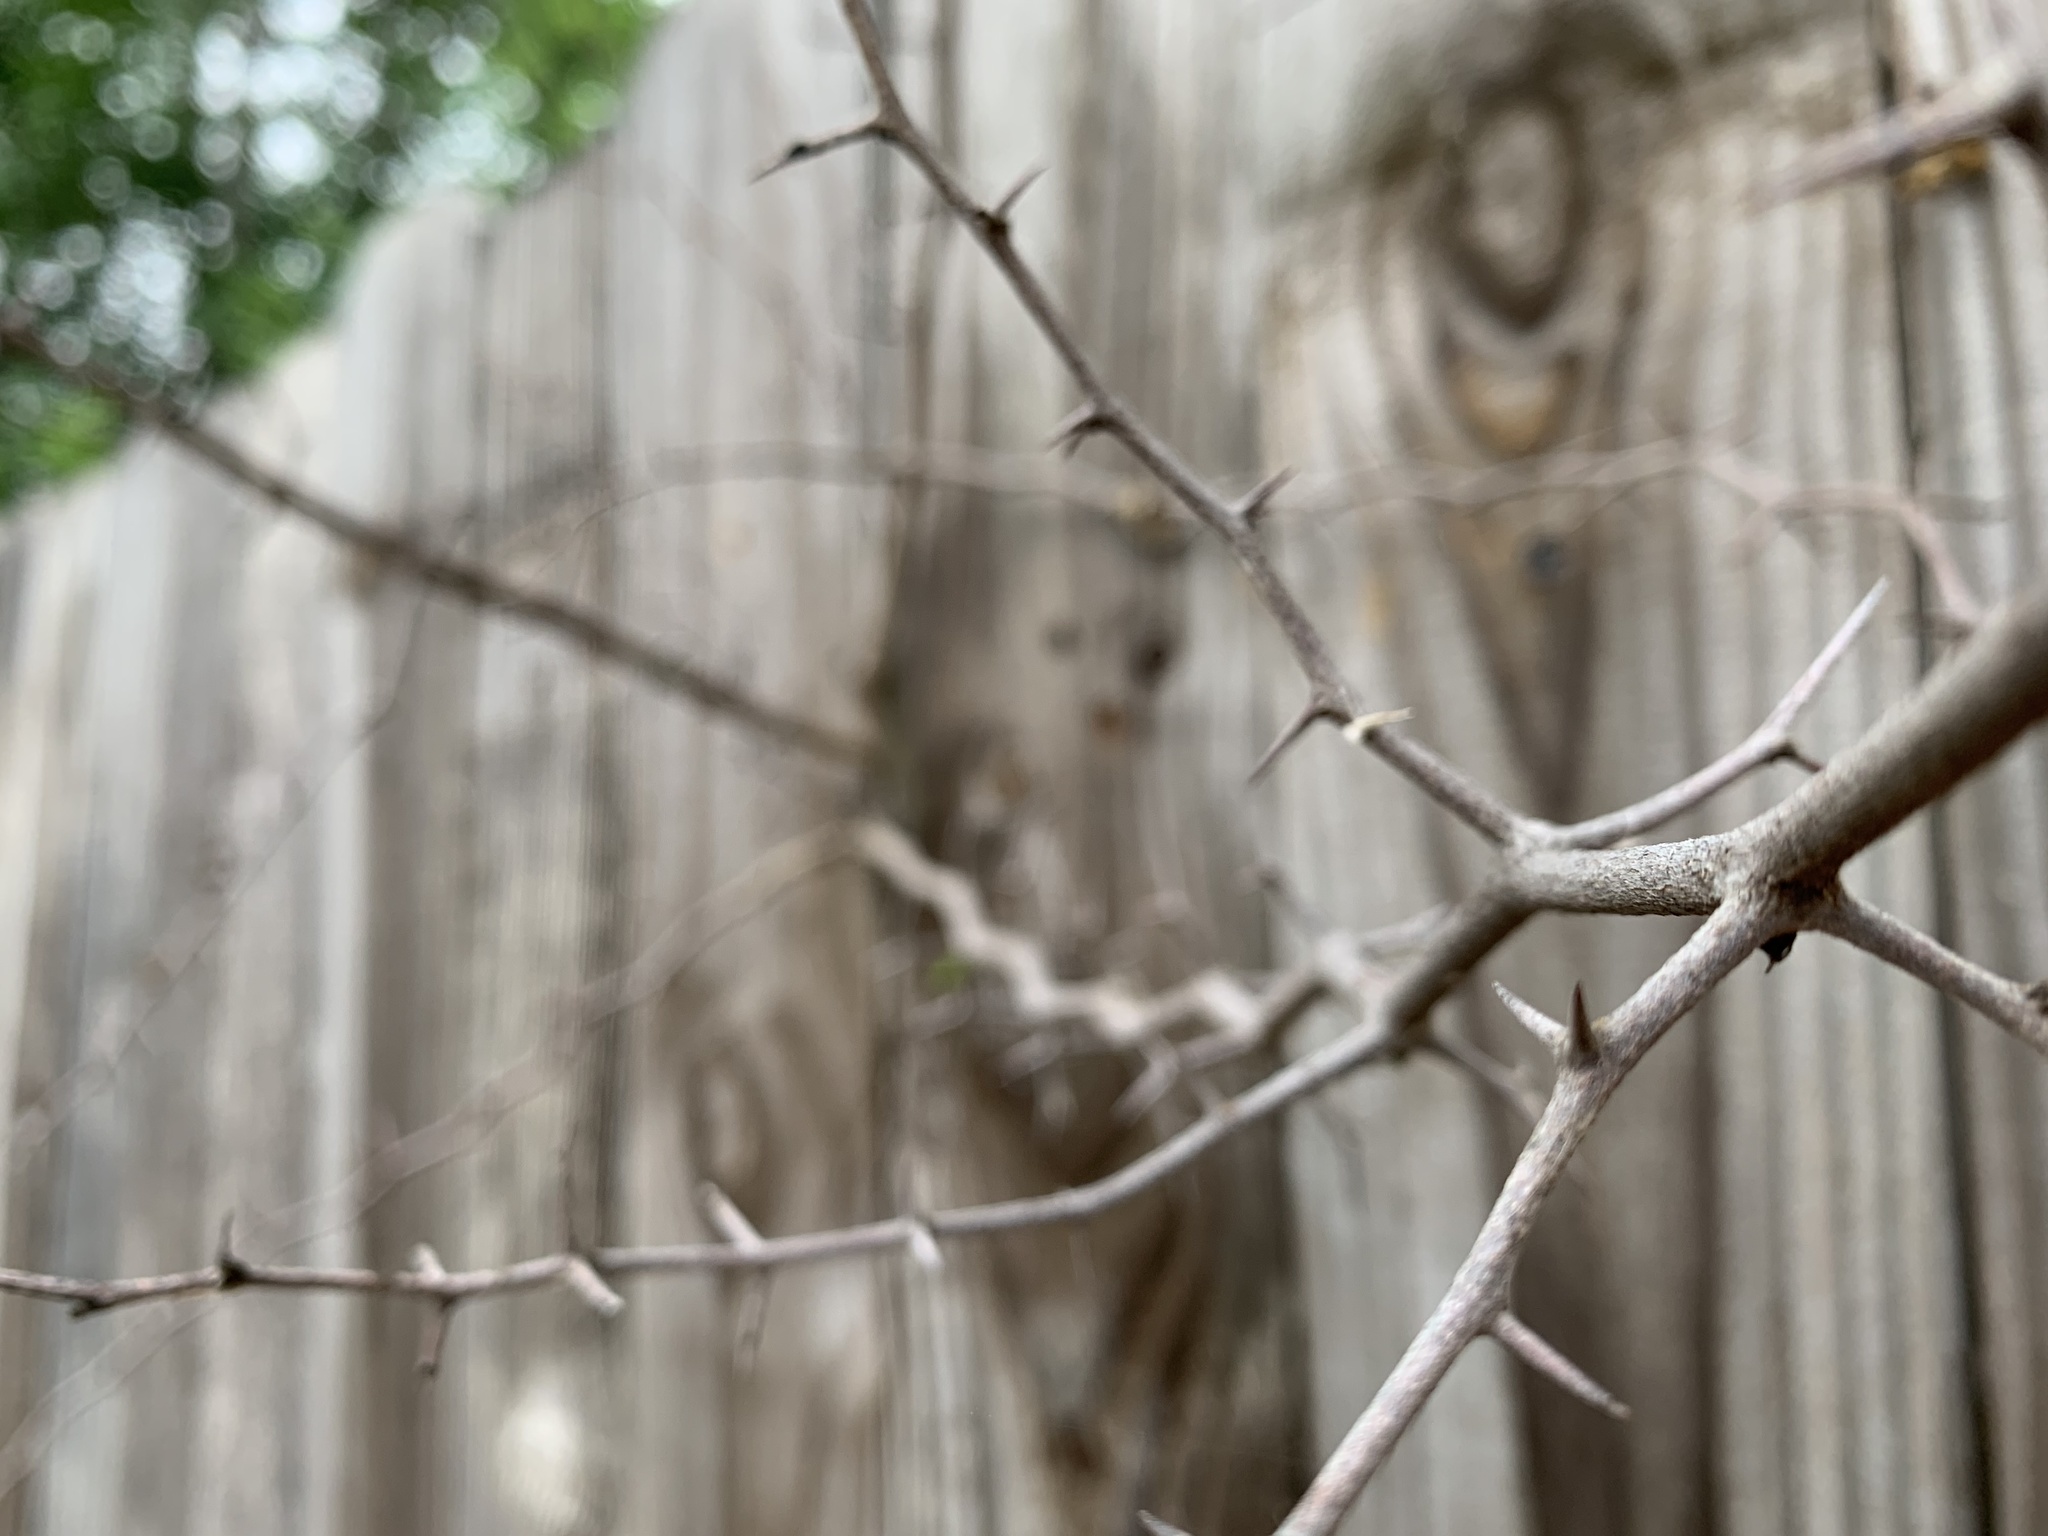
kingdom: Plantae
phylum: Tracheophyta
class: Magnoliopsida
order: Fabales
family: Fabaceae
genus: Gleditsia
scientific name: Gleditsia triacanthos
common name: Common honeylocust
